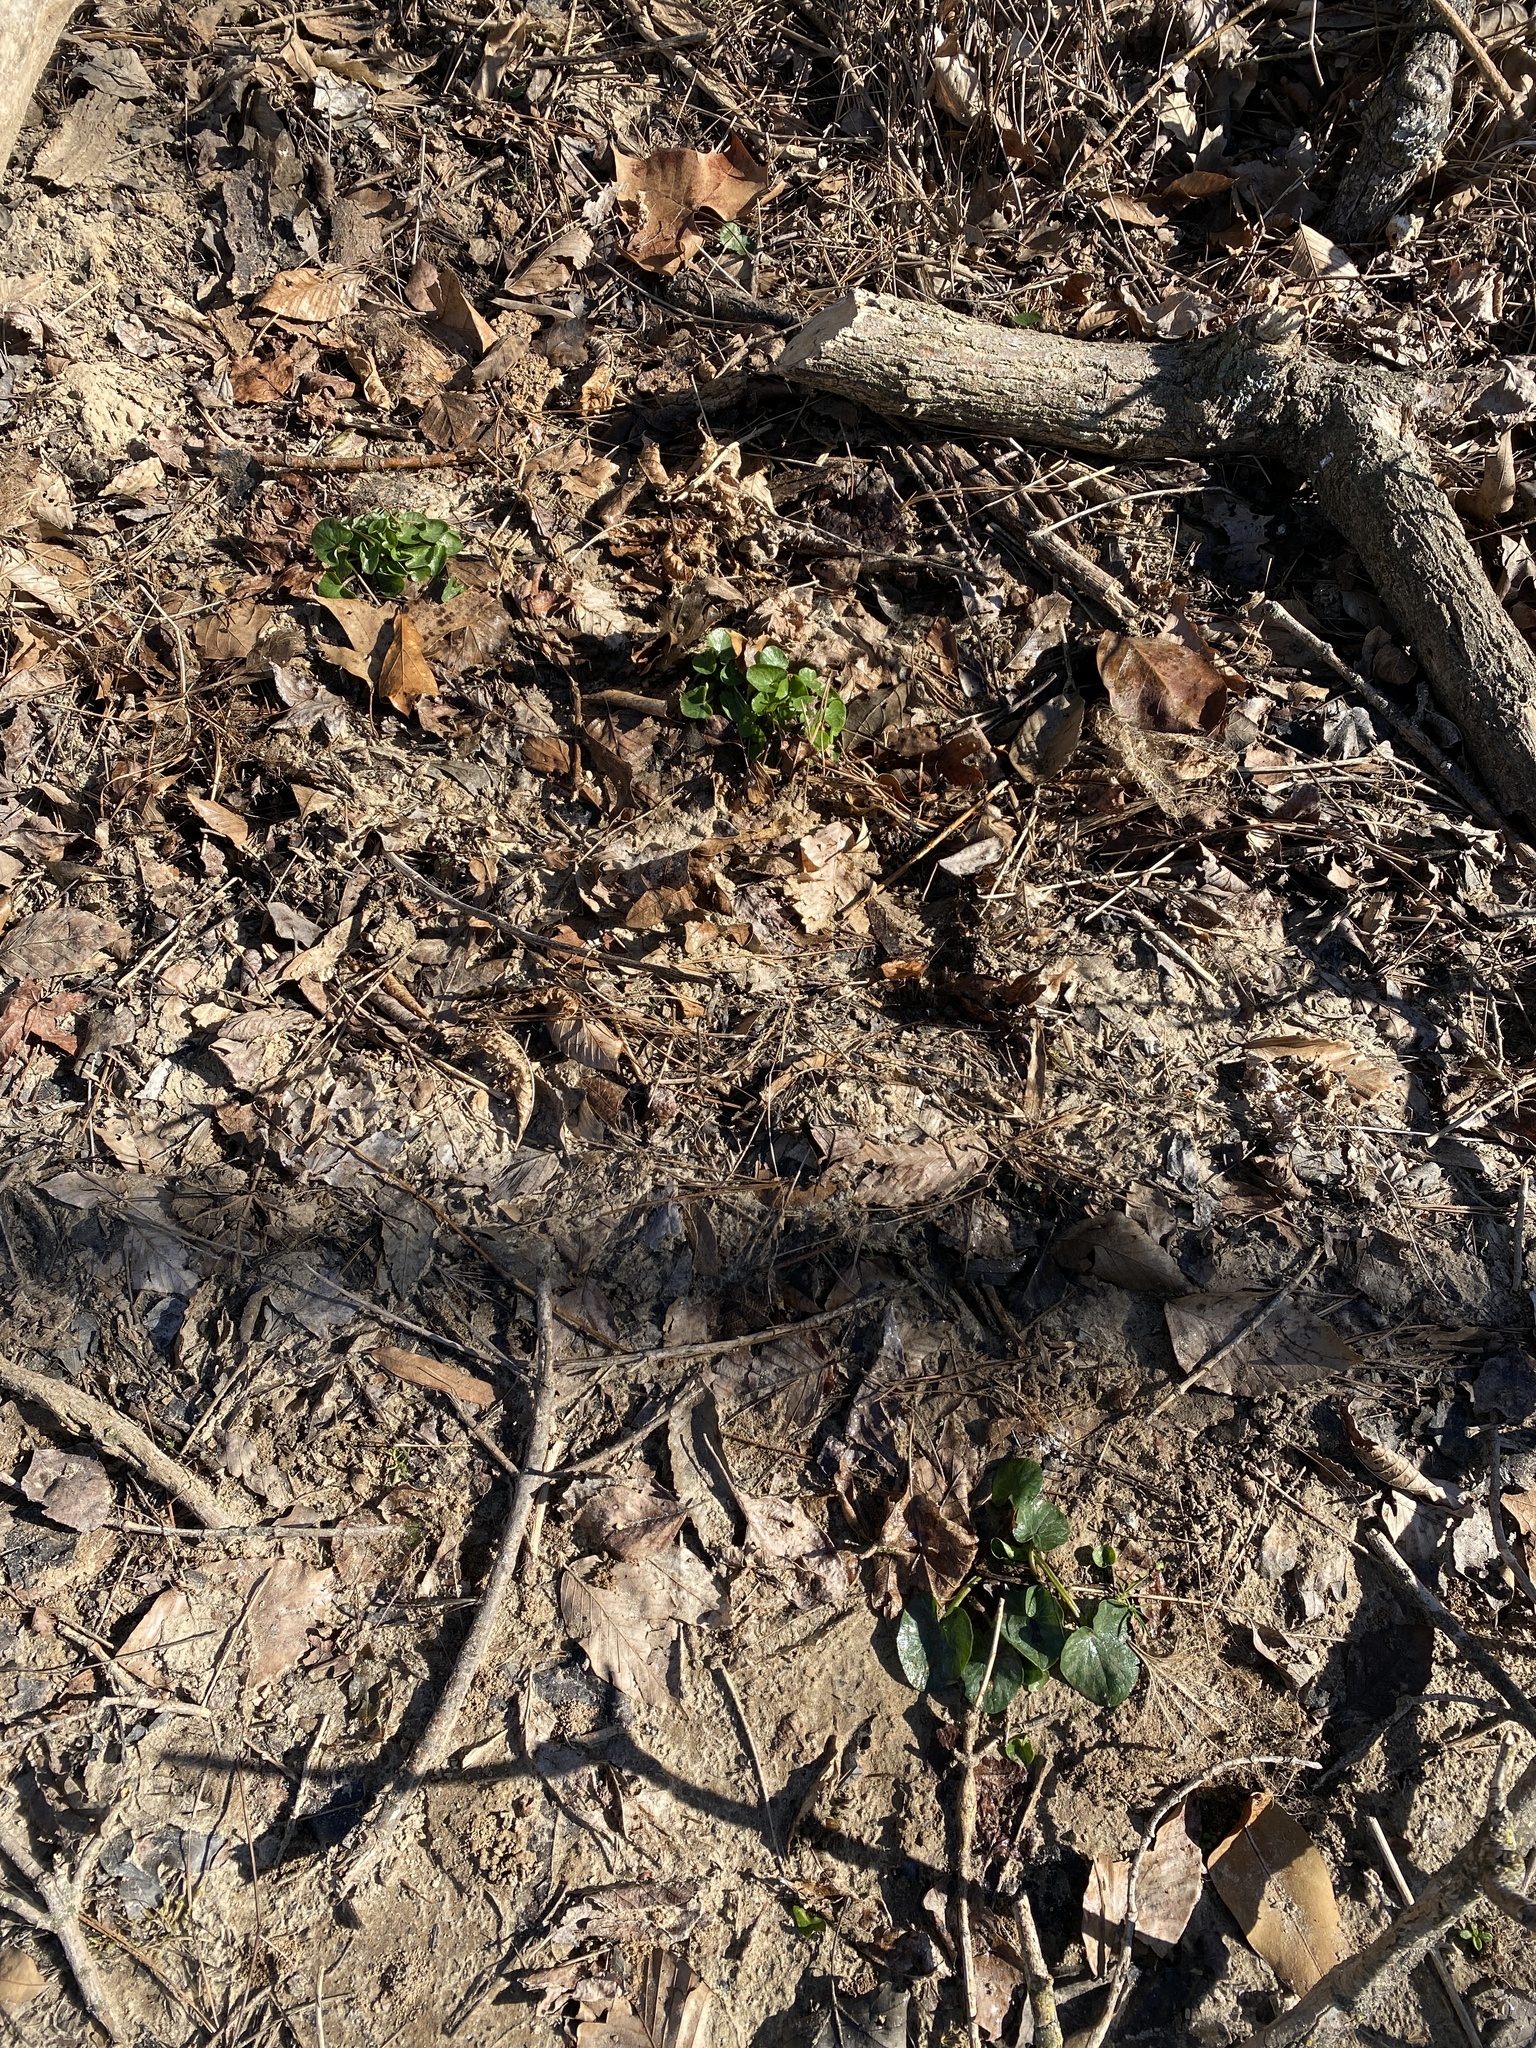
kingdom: Plantae
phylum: Tracheophyta
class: Magnoliopsida
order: Ranunculales
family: Ranunculaceae
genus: Ficaria
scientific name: Ficaria verna
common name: Lesser celandine
